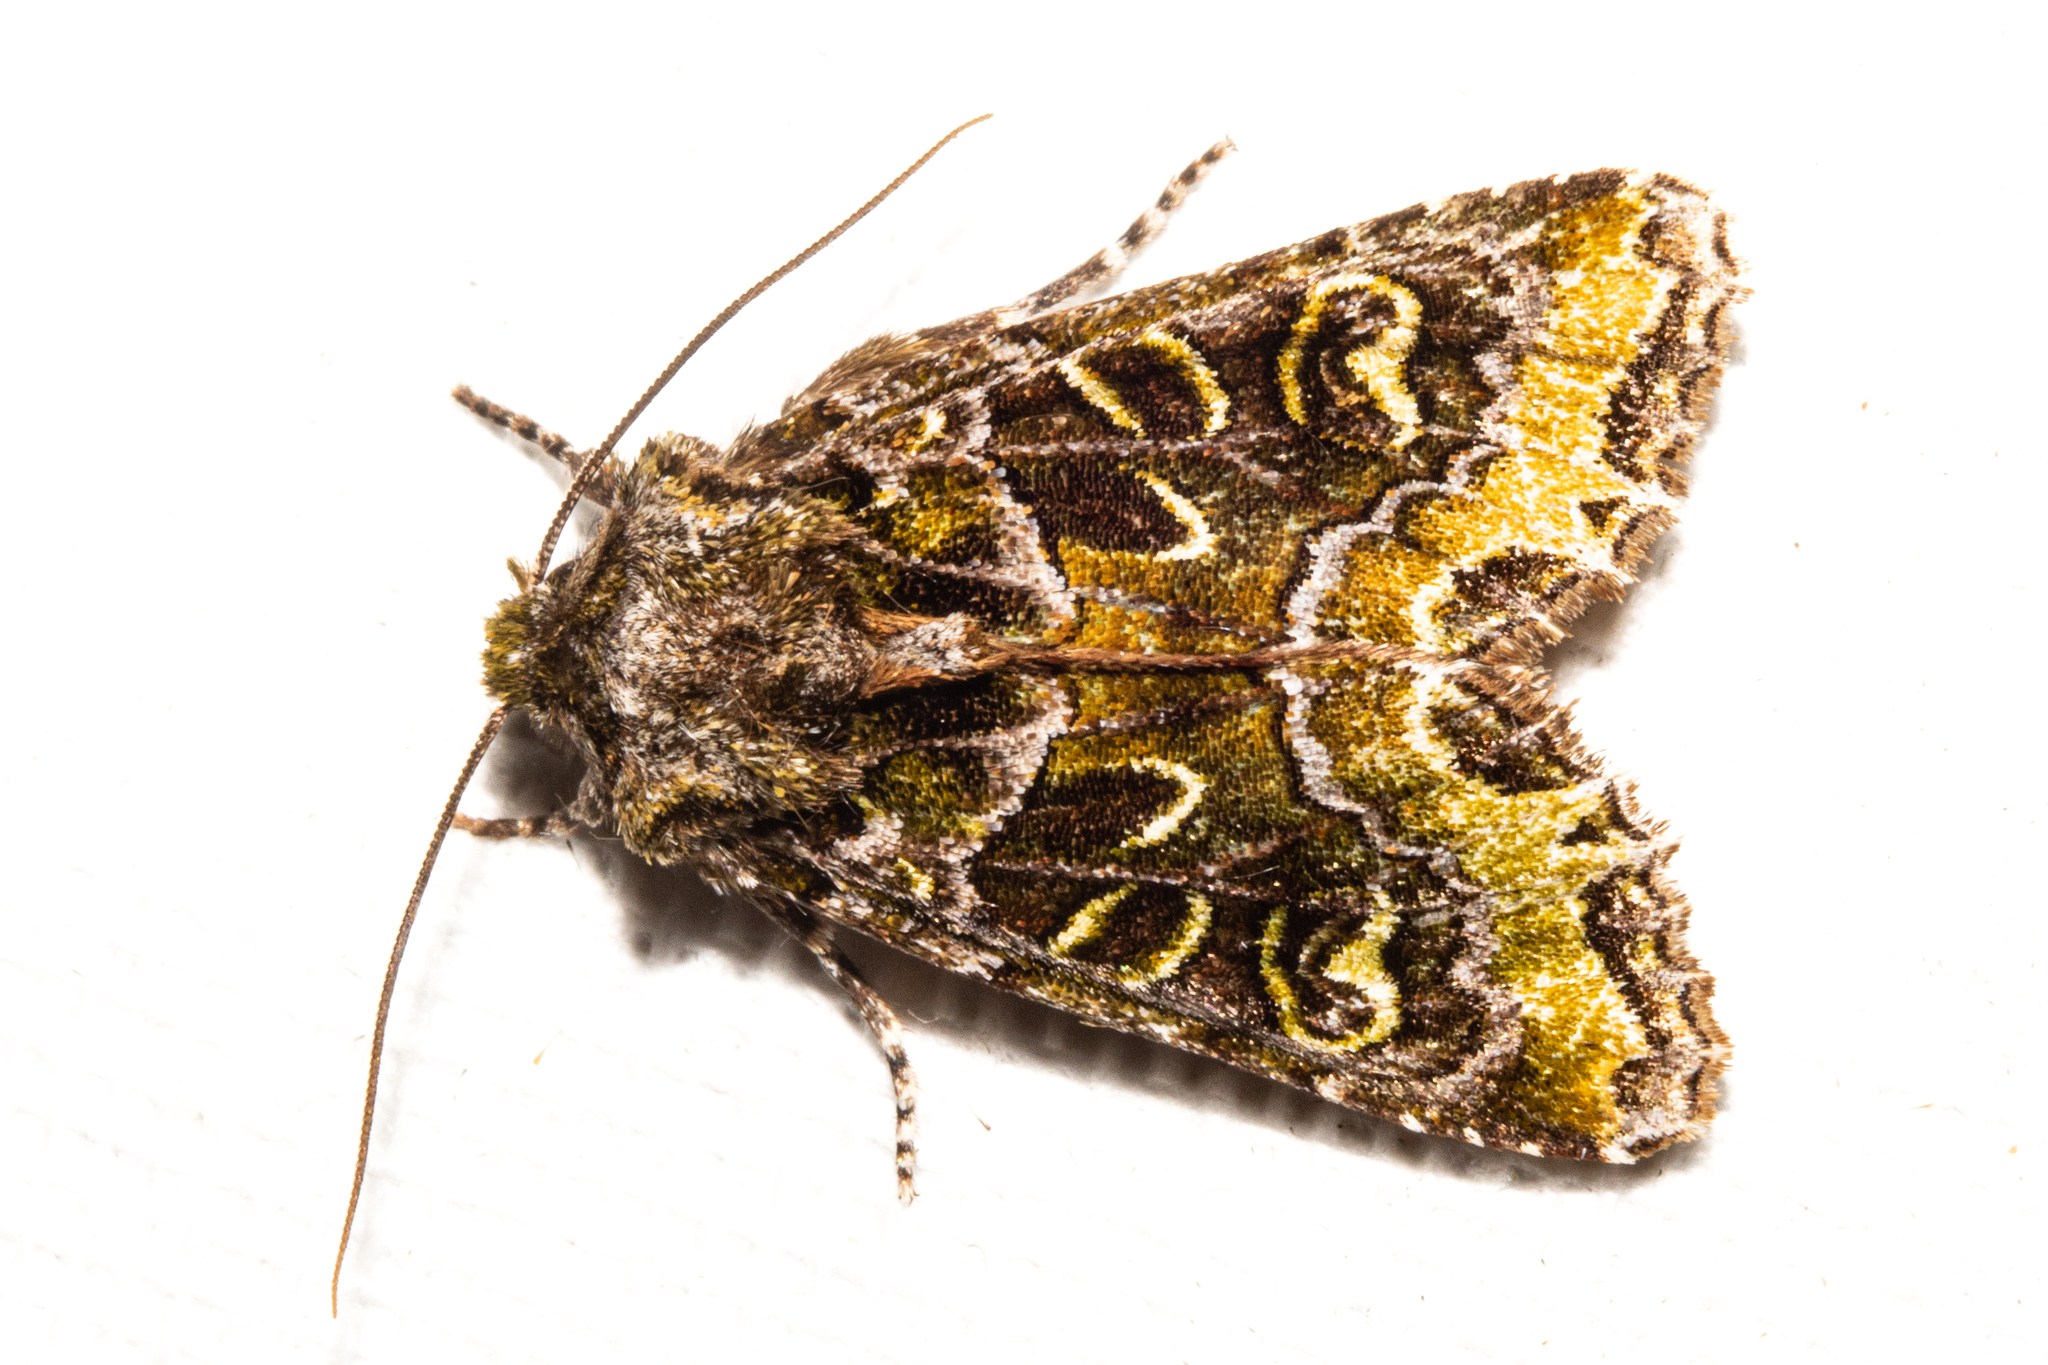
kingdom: Animalia
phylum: Arthropoda
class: Insecta
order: Lepidoptera
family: Noctuidae
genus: Ichneutica
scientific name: Ichneutica chlorodonta
